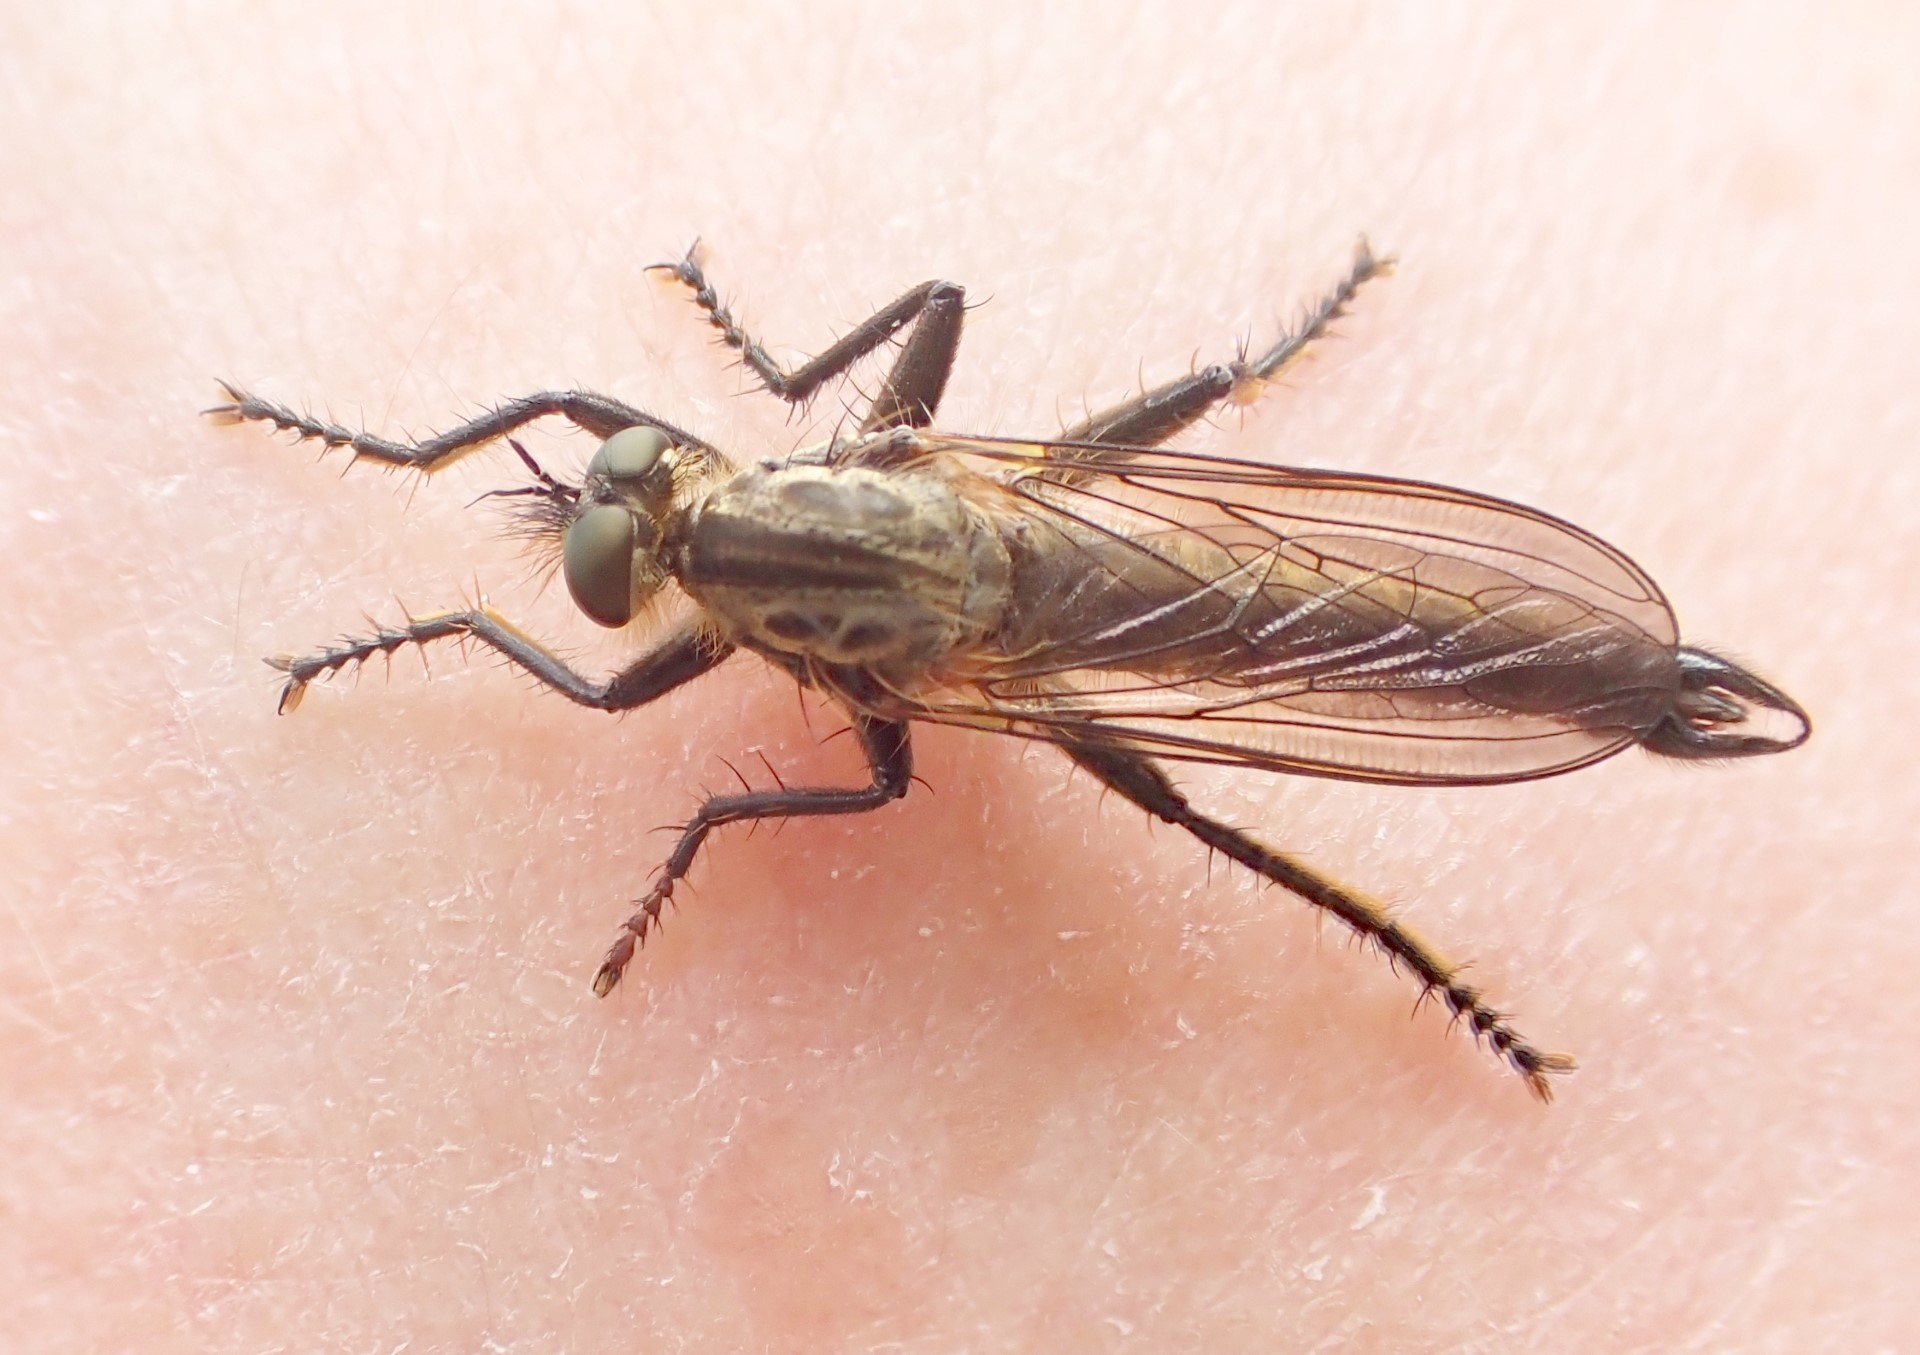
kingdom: Animalia
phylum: Arthropoda
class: Insecta
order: Diptera
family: Asilidae
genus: Didysmachus
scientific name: Didysmachus picipes
